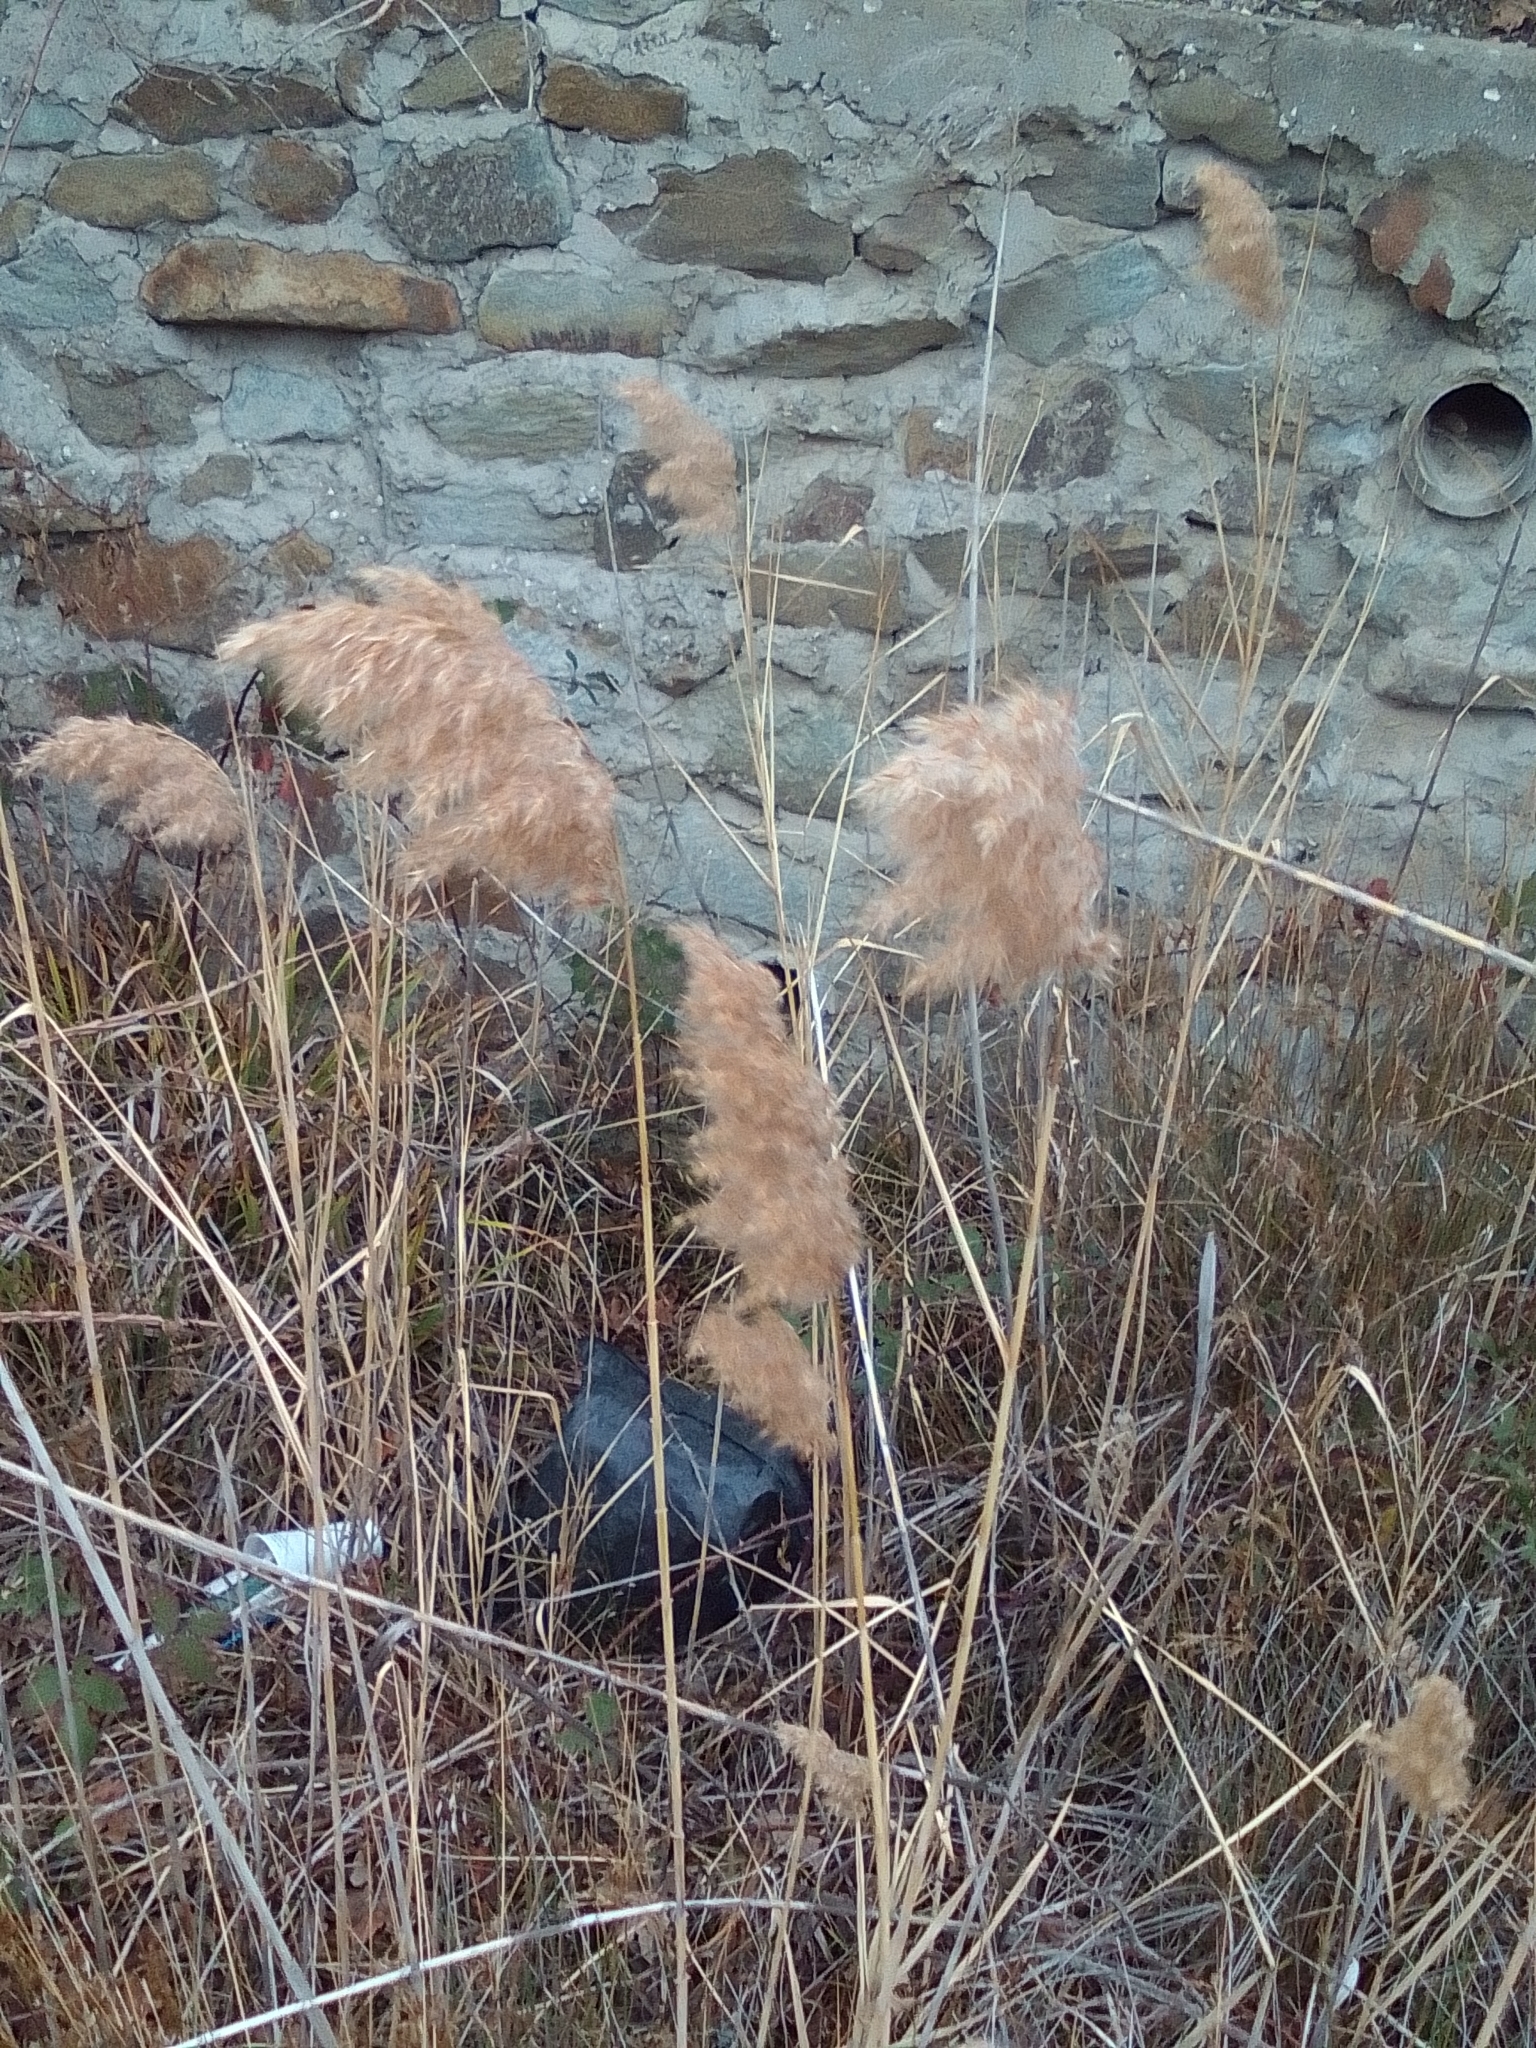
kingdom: Plantae
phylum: Tracheophyta
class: Liliopsida
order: Poales
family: Poaceae
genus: Phragmites
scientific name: Phragmites australis
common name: Common reed
